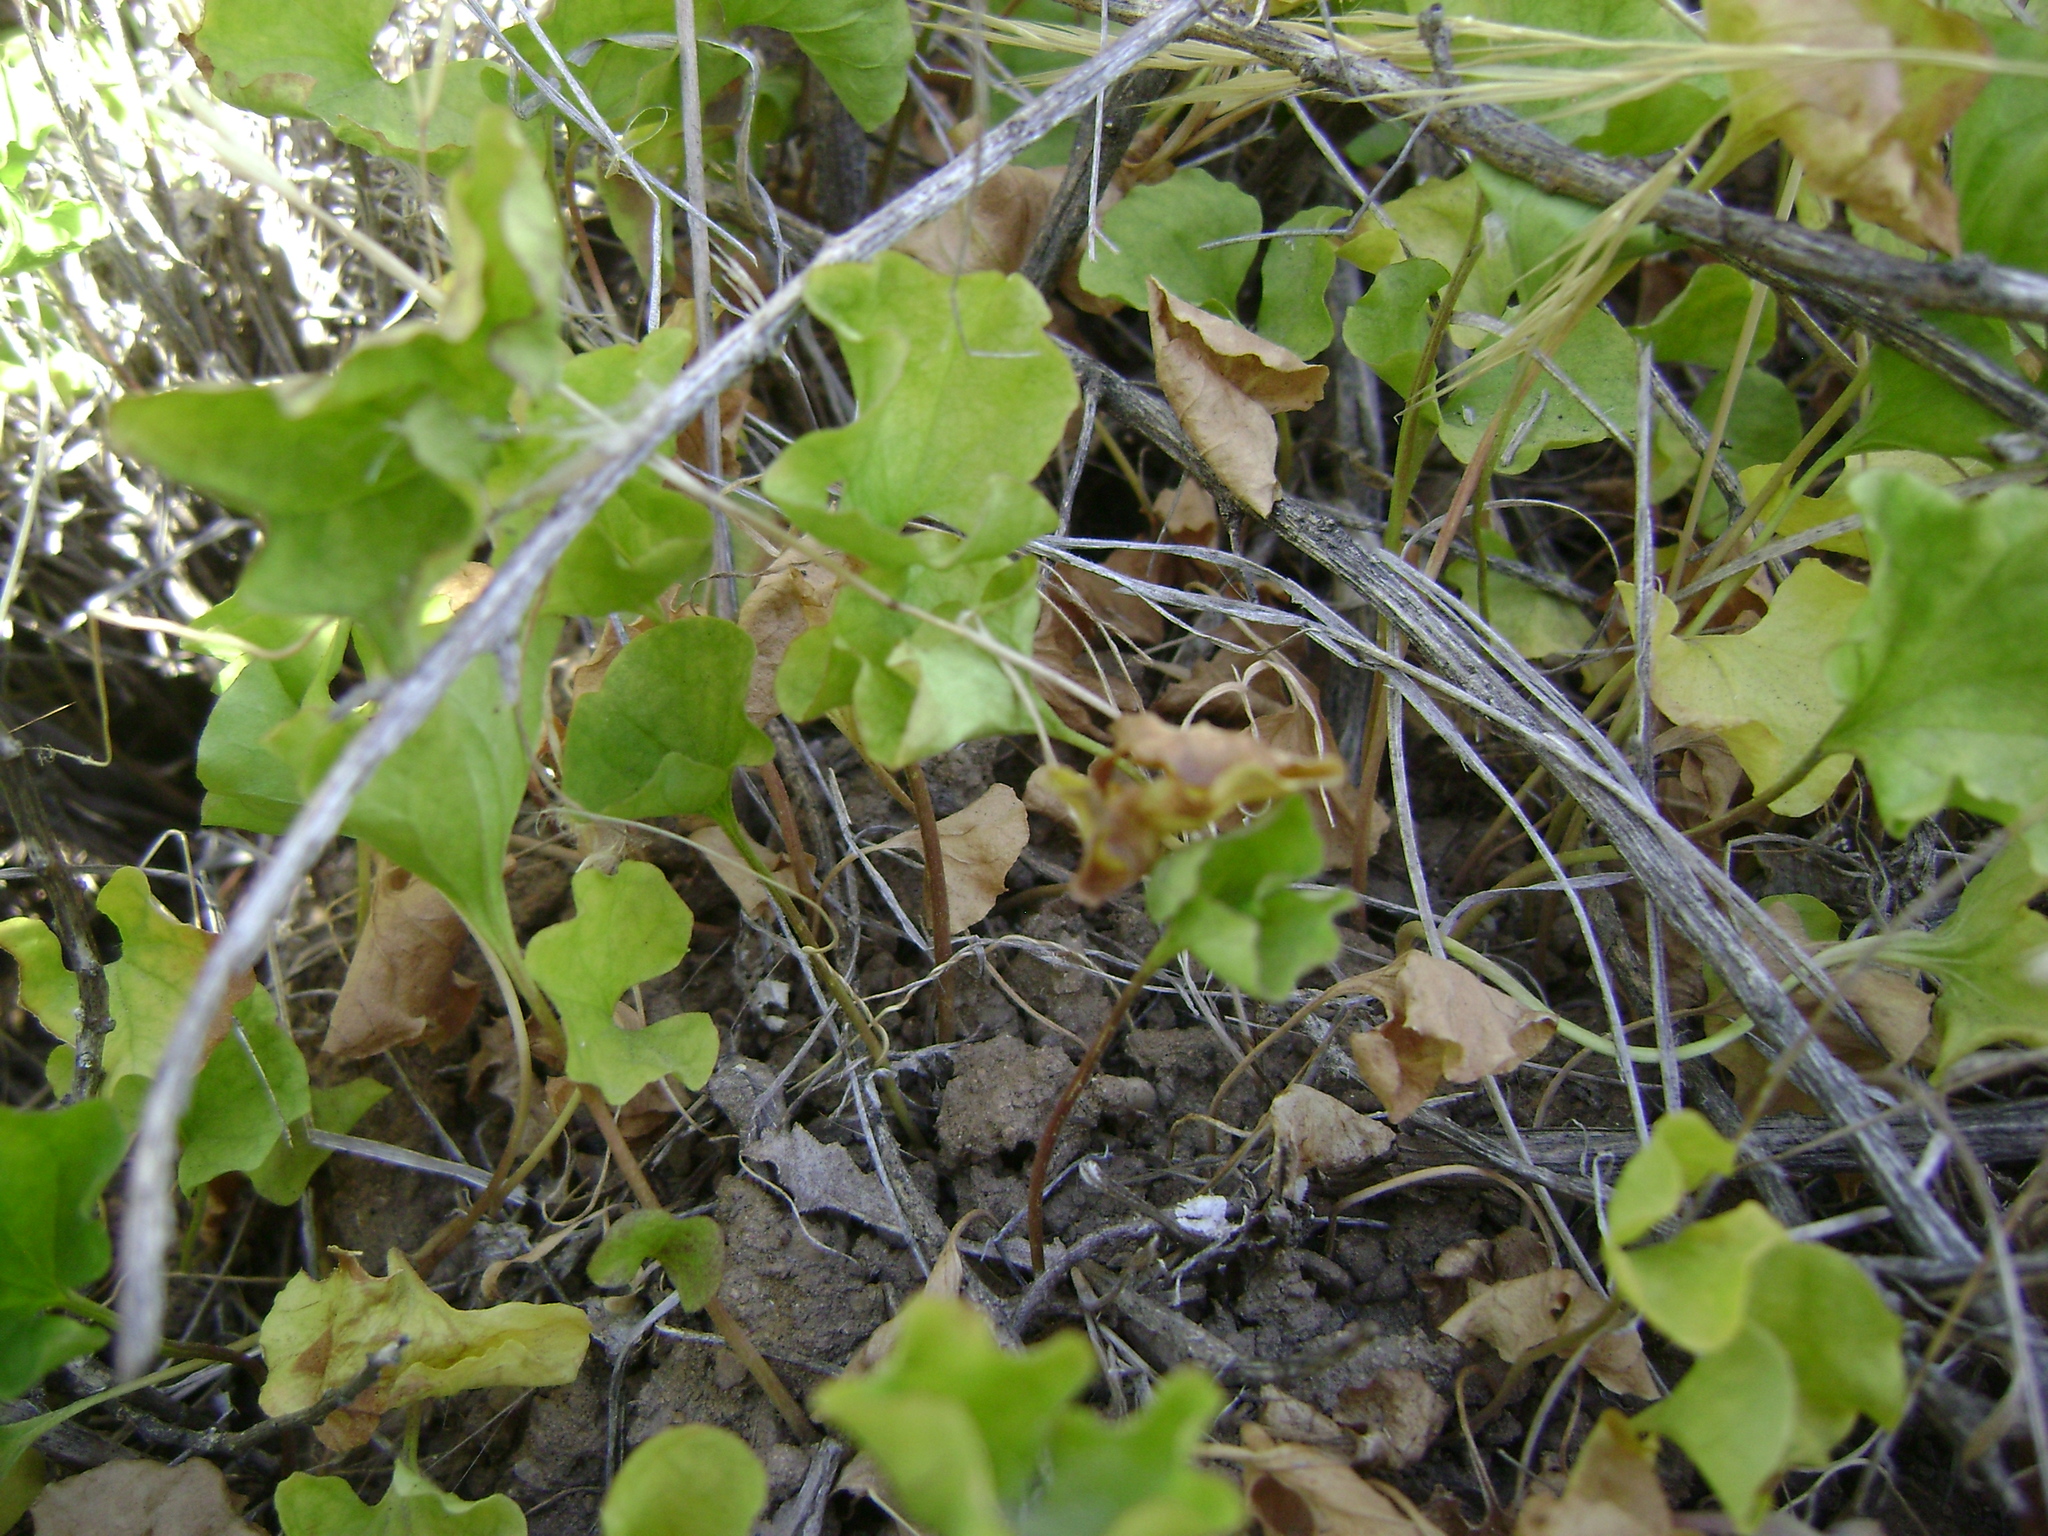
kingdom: Plantae
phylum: Tracheophyta
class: Magnoliopsida
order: Solanales
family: Convolvulaceae
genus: Dichondra
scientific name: Dichondra occidentalis
